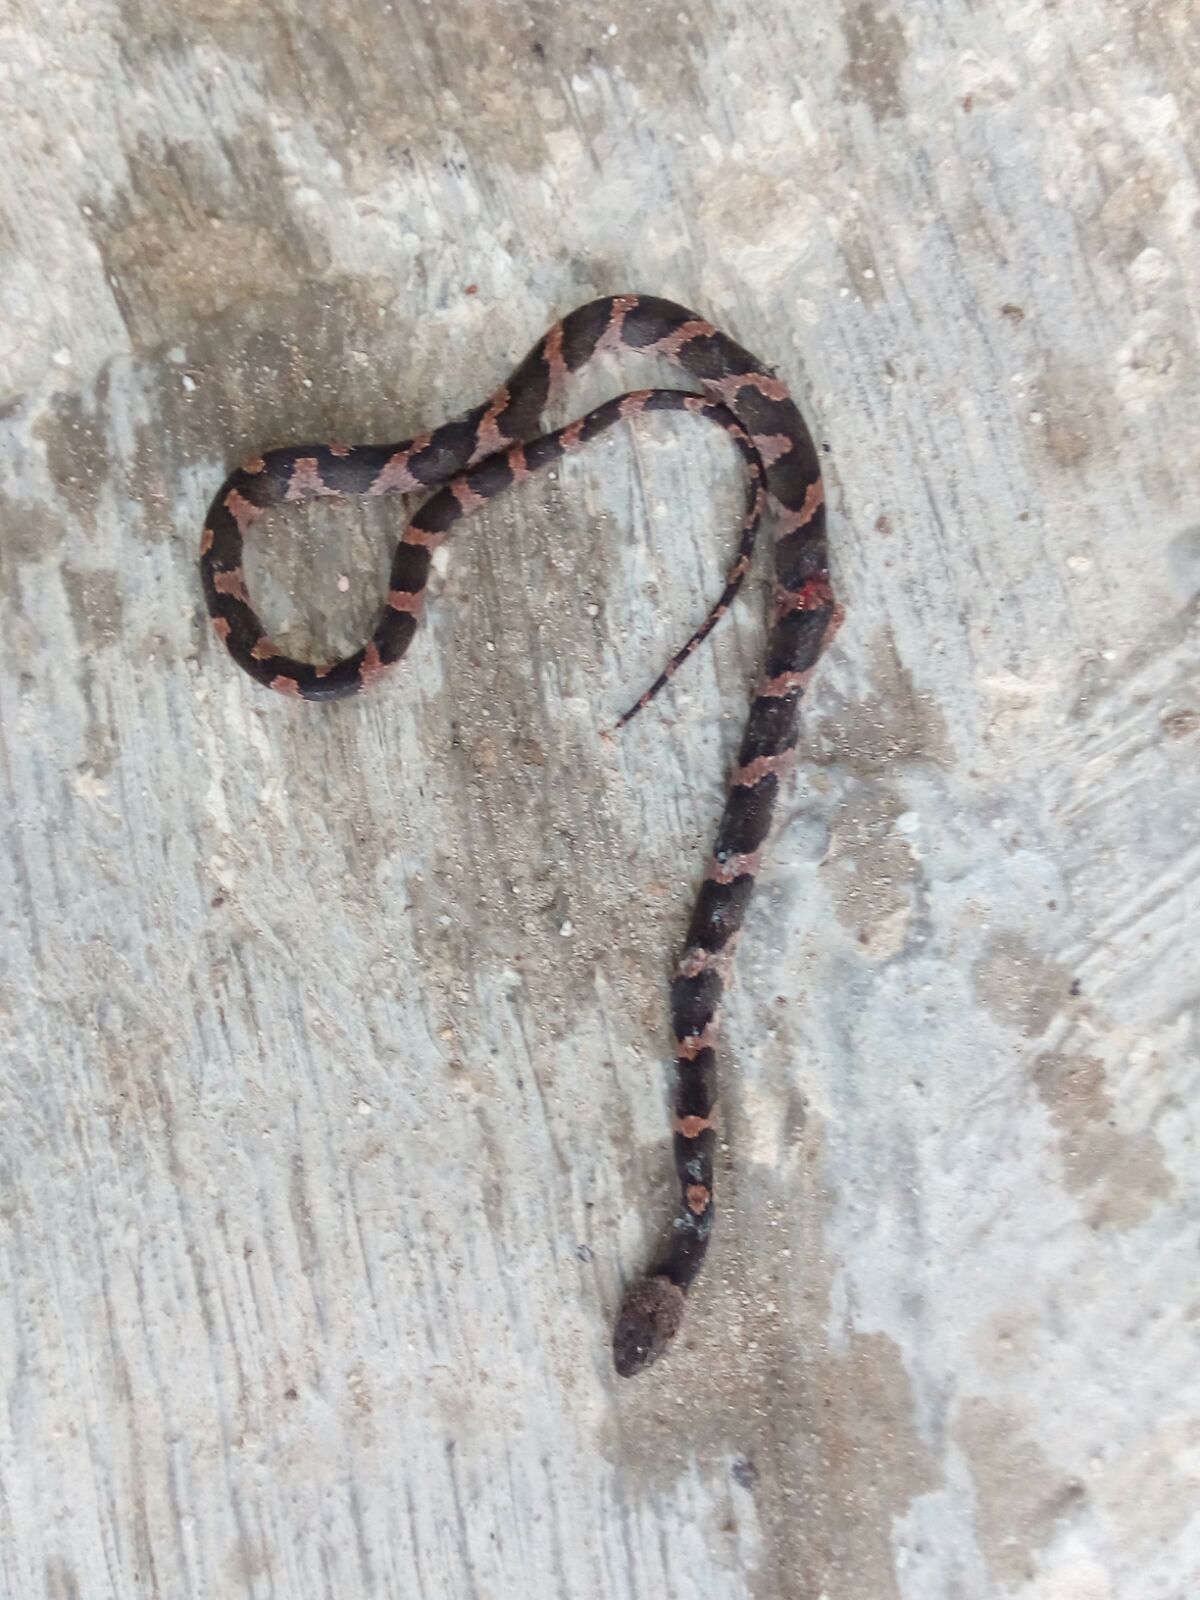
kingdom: Animalia
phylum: Chordata
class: Squamata
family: Colubridae
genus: Leptodeira
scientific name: Leptodeira frenata
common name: Rainforest cat-eyed snake
